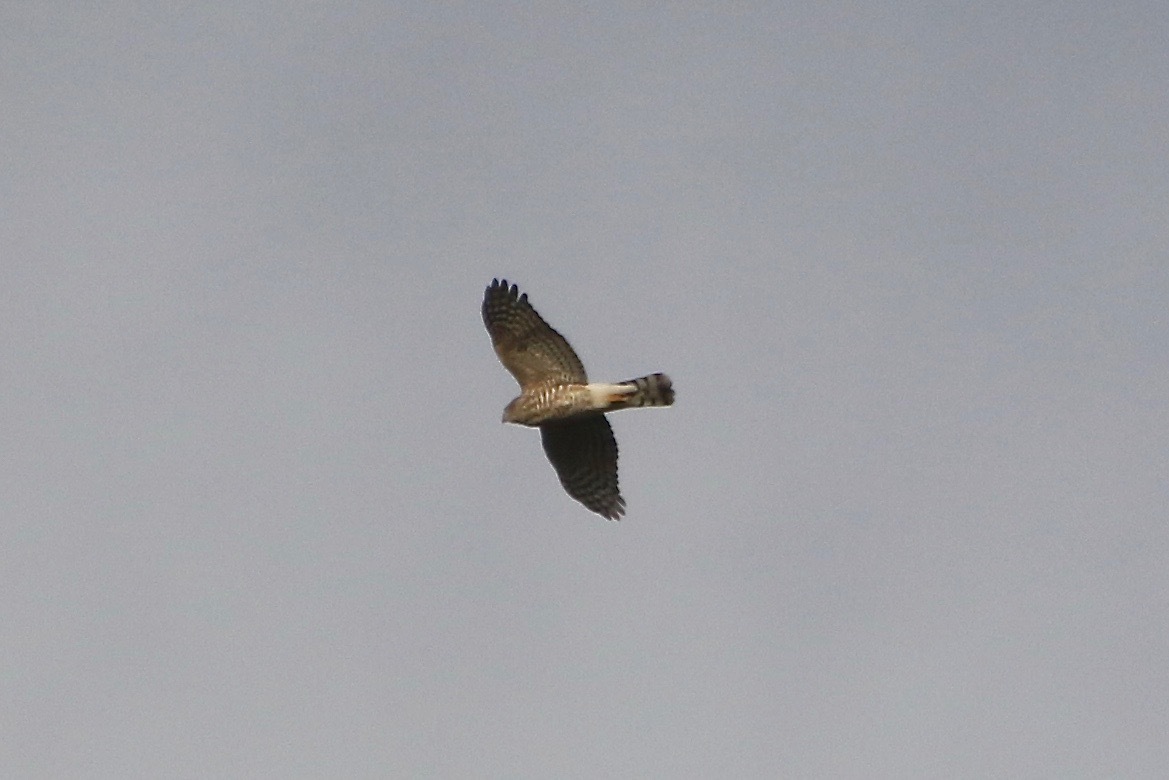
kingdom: Animalia
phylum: Chordata
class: Aves
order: Accipitriformes
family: Accipitridae
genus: Accipiter
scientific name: Accipiter striatus
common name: Sharp-shinned hawk
